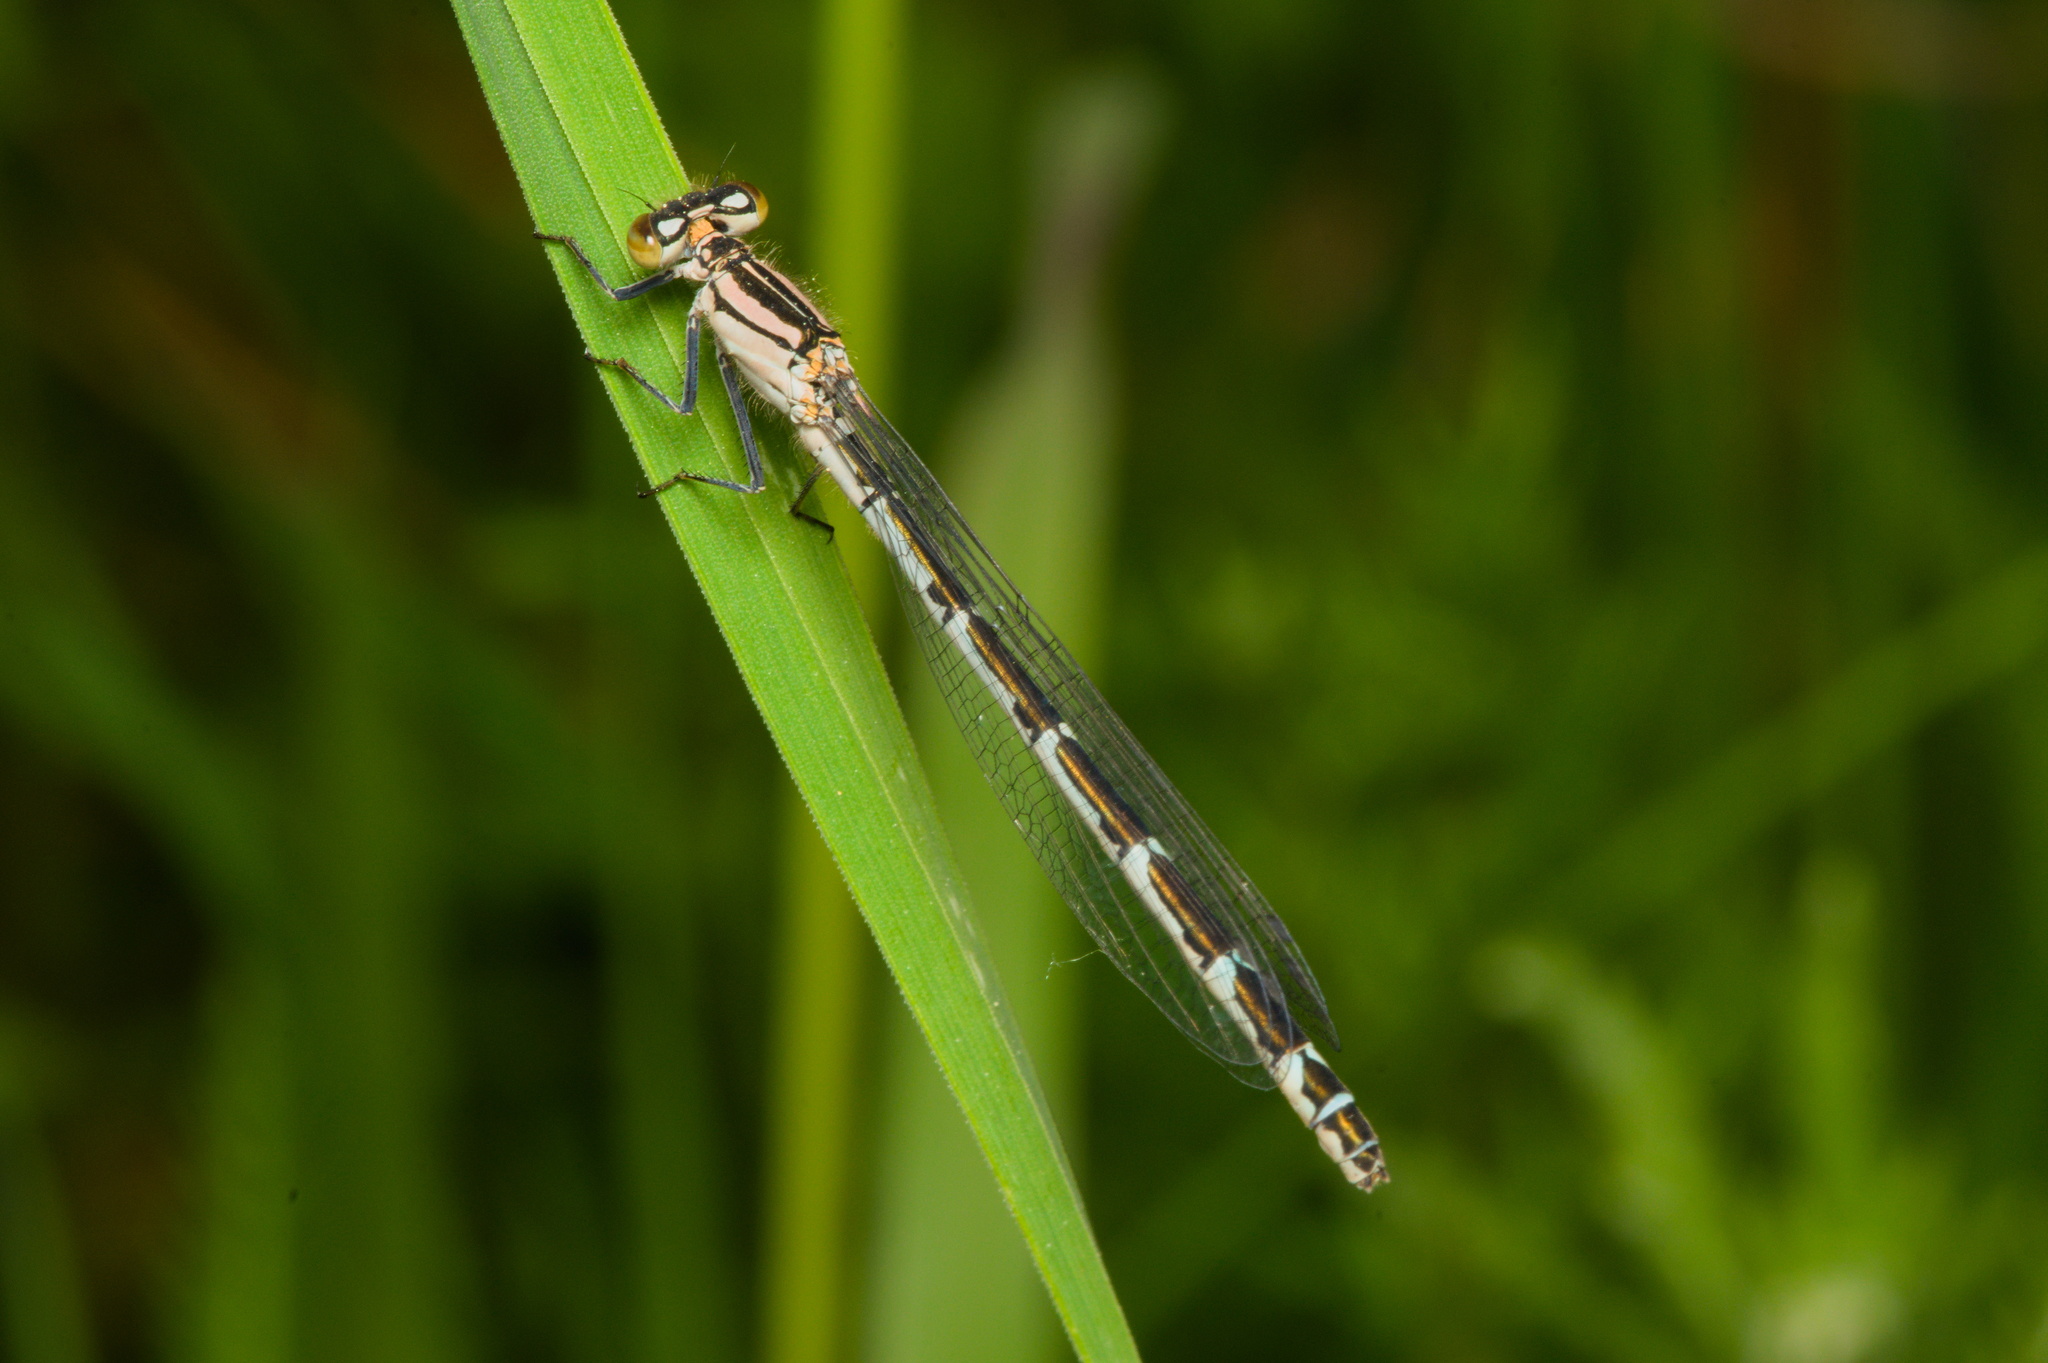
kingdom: Animalia
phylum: Arthropoda
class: Insecta
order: Odonata
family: Coenagrionidae
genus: Enallagma
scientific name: Enallagma cyathigerum
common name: Common blue damselfly
